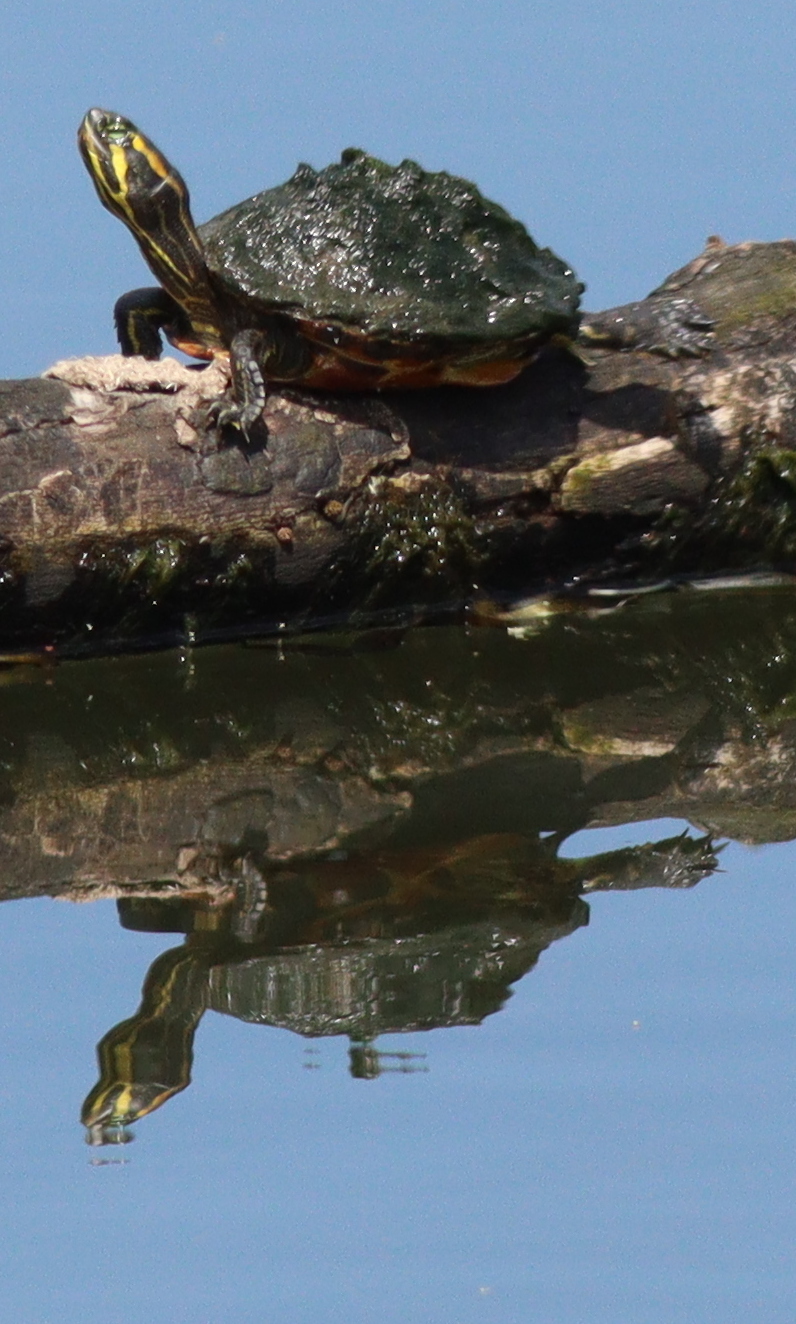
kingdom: Animalia
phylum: Chordata
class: Testudines
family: Emydidae
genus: Trachemys
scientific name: Trachemys scripta
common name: Slider
